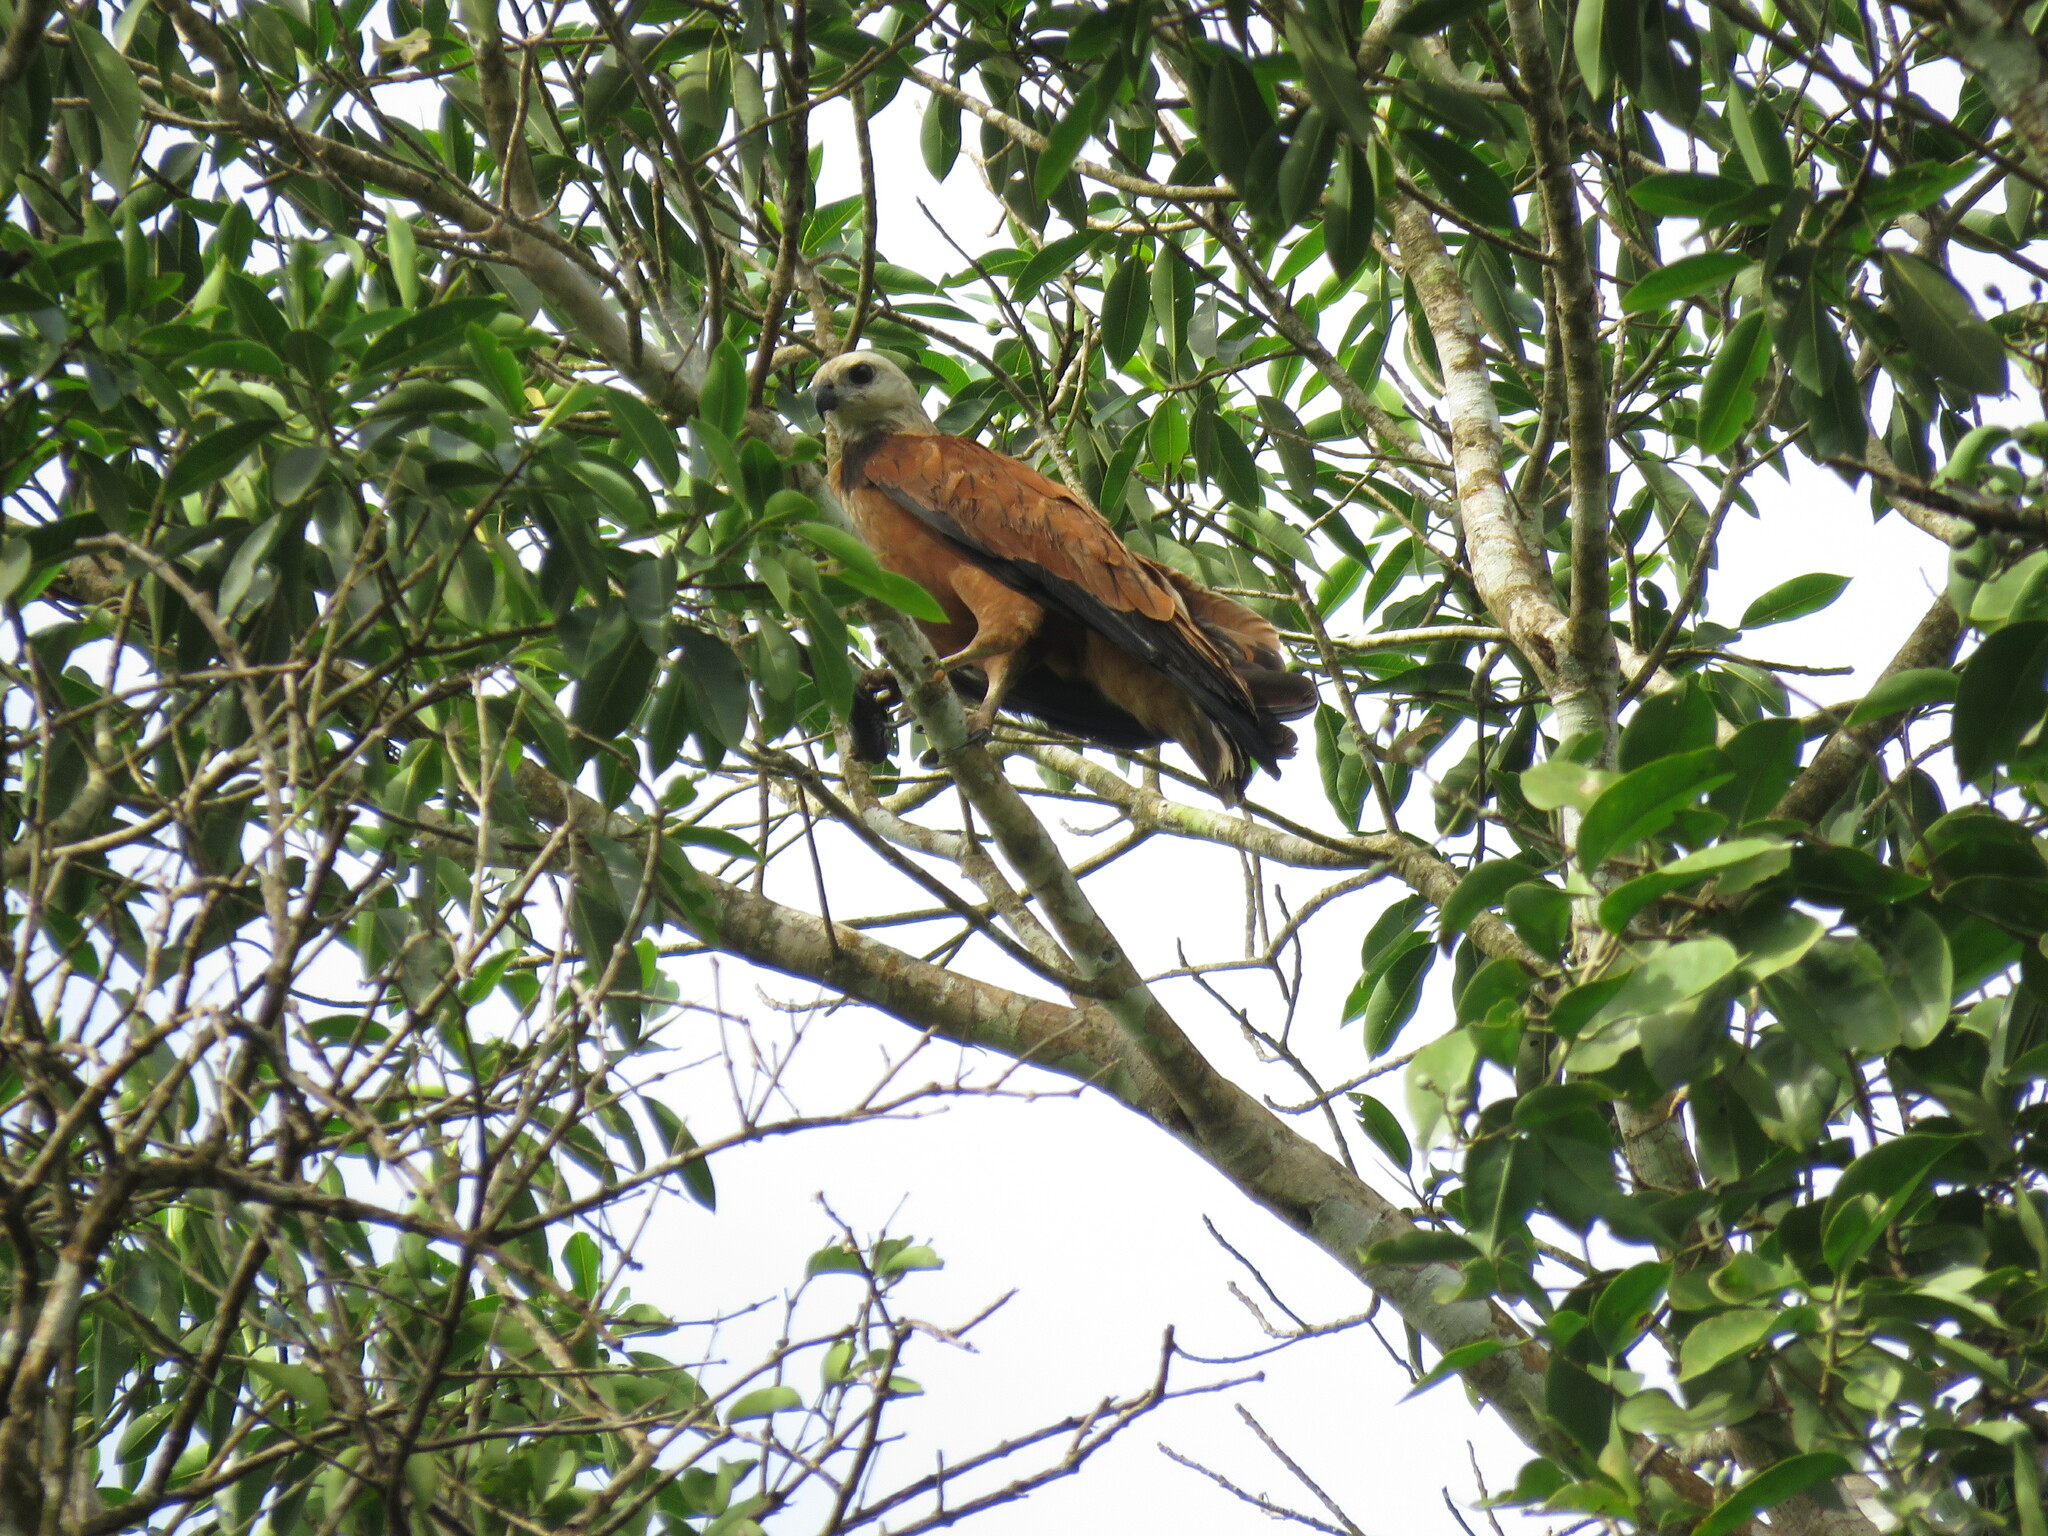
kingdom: Animalia
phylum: Chordata
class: Aves
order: Accipitriformes
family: Accipitridae
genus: Busarellus
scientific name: Busarellus nigricollis
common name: Black-collared hawk
